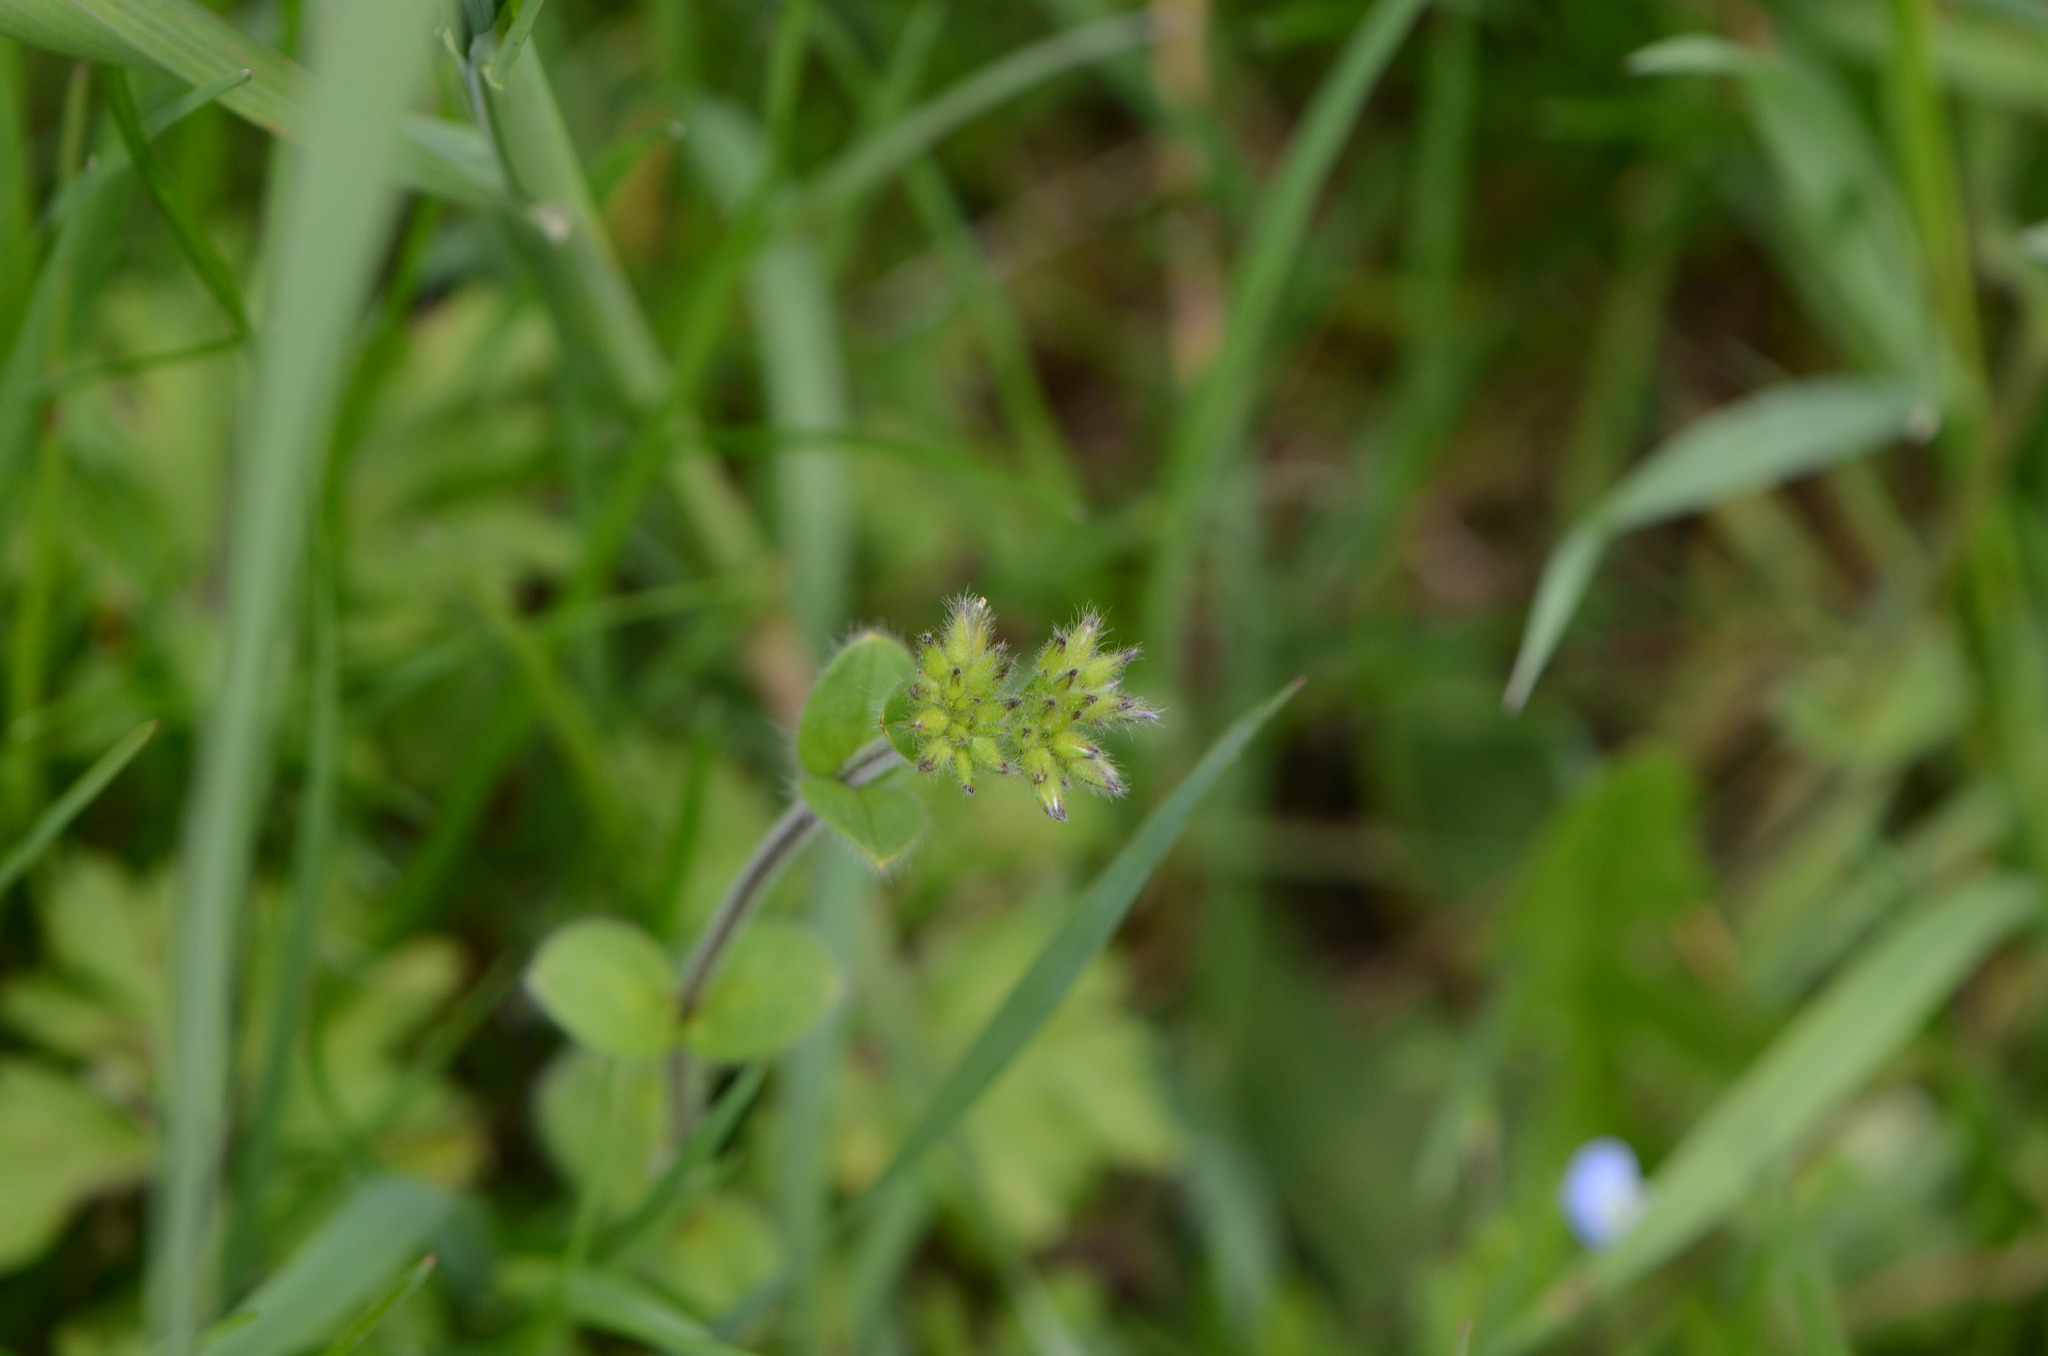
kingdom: Plantae
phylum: Tracheophyta
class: Magnoliopsida
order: Caryophyllales
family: Caryophyllaceae
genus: Cerastium
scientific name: Cerastium glomeratum
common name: Sticky chickweed
